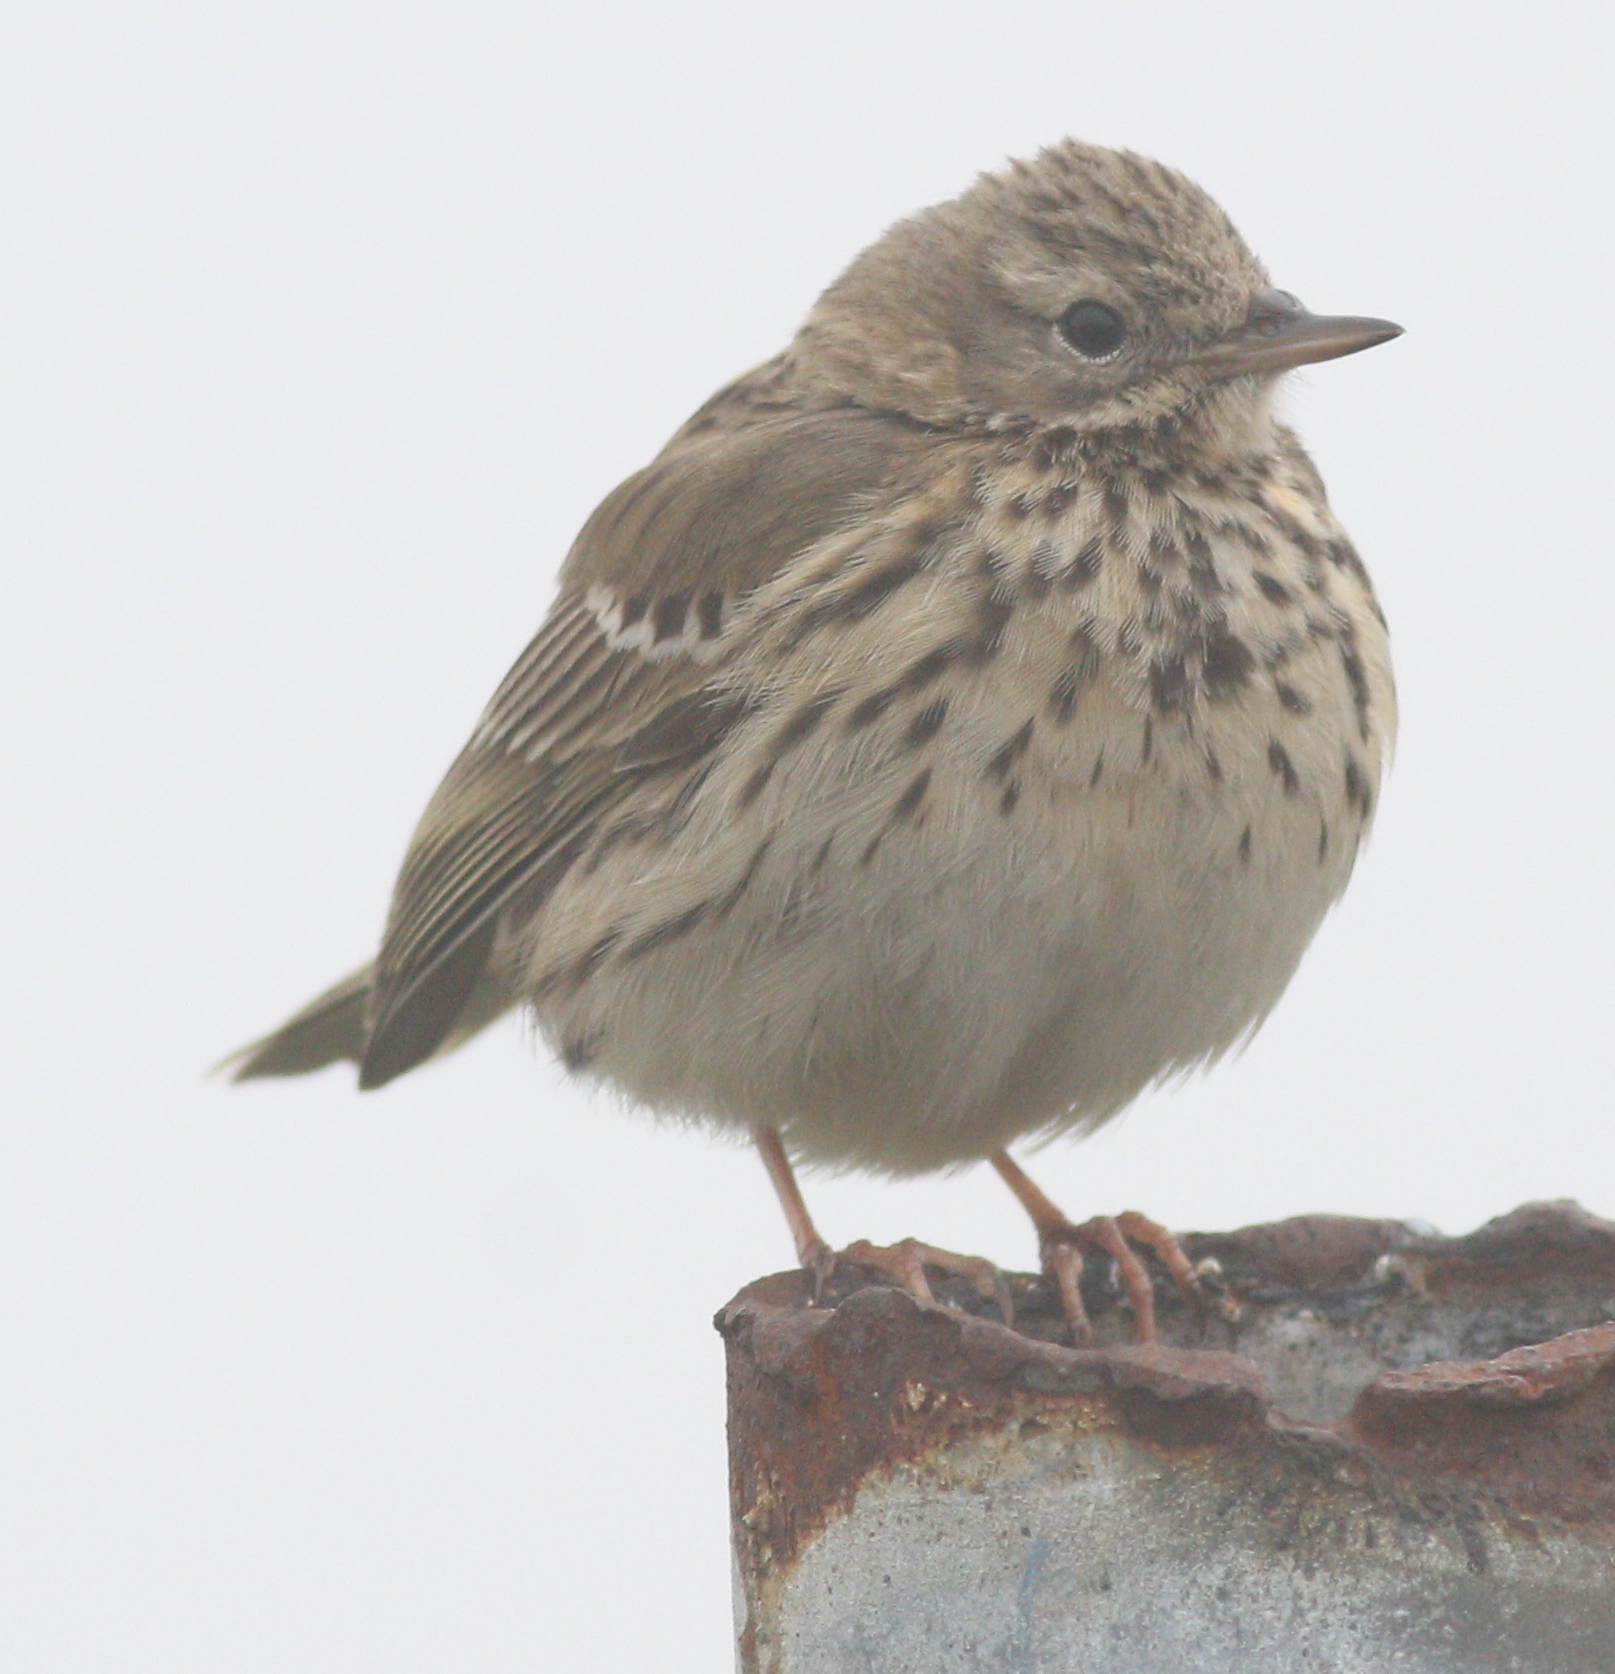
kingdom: Animalia
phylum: Chordata
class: Aves
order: Passeriformes
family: Motacillidae
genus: Anthus
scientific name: Anthus pratensis
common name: Meadow pipit
